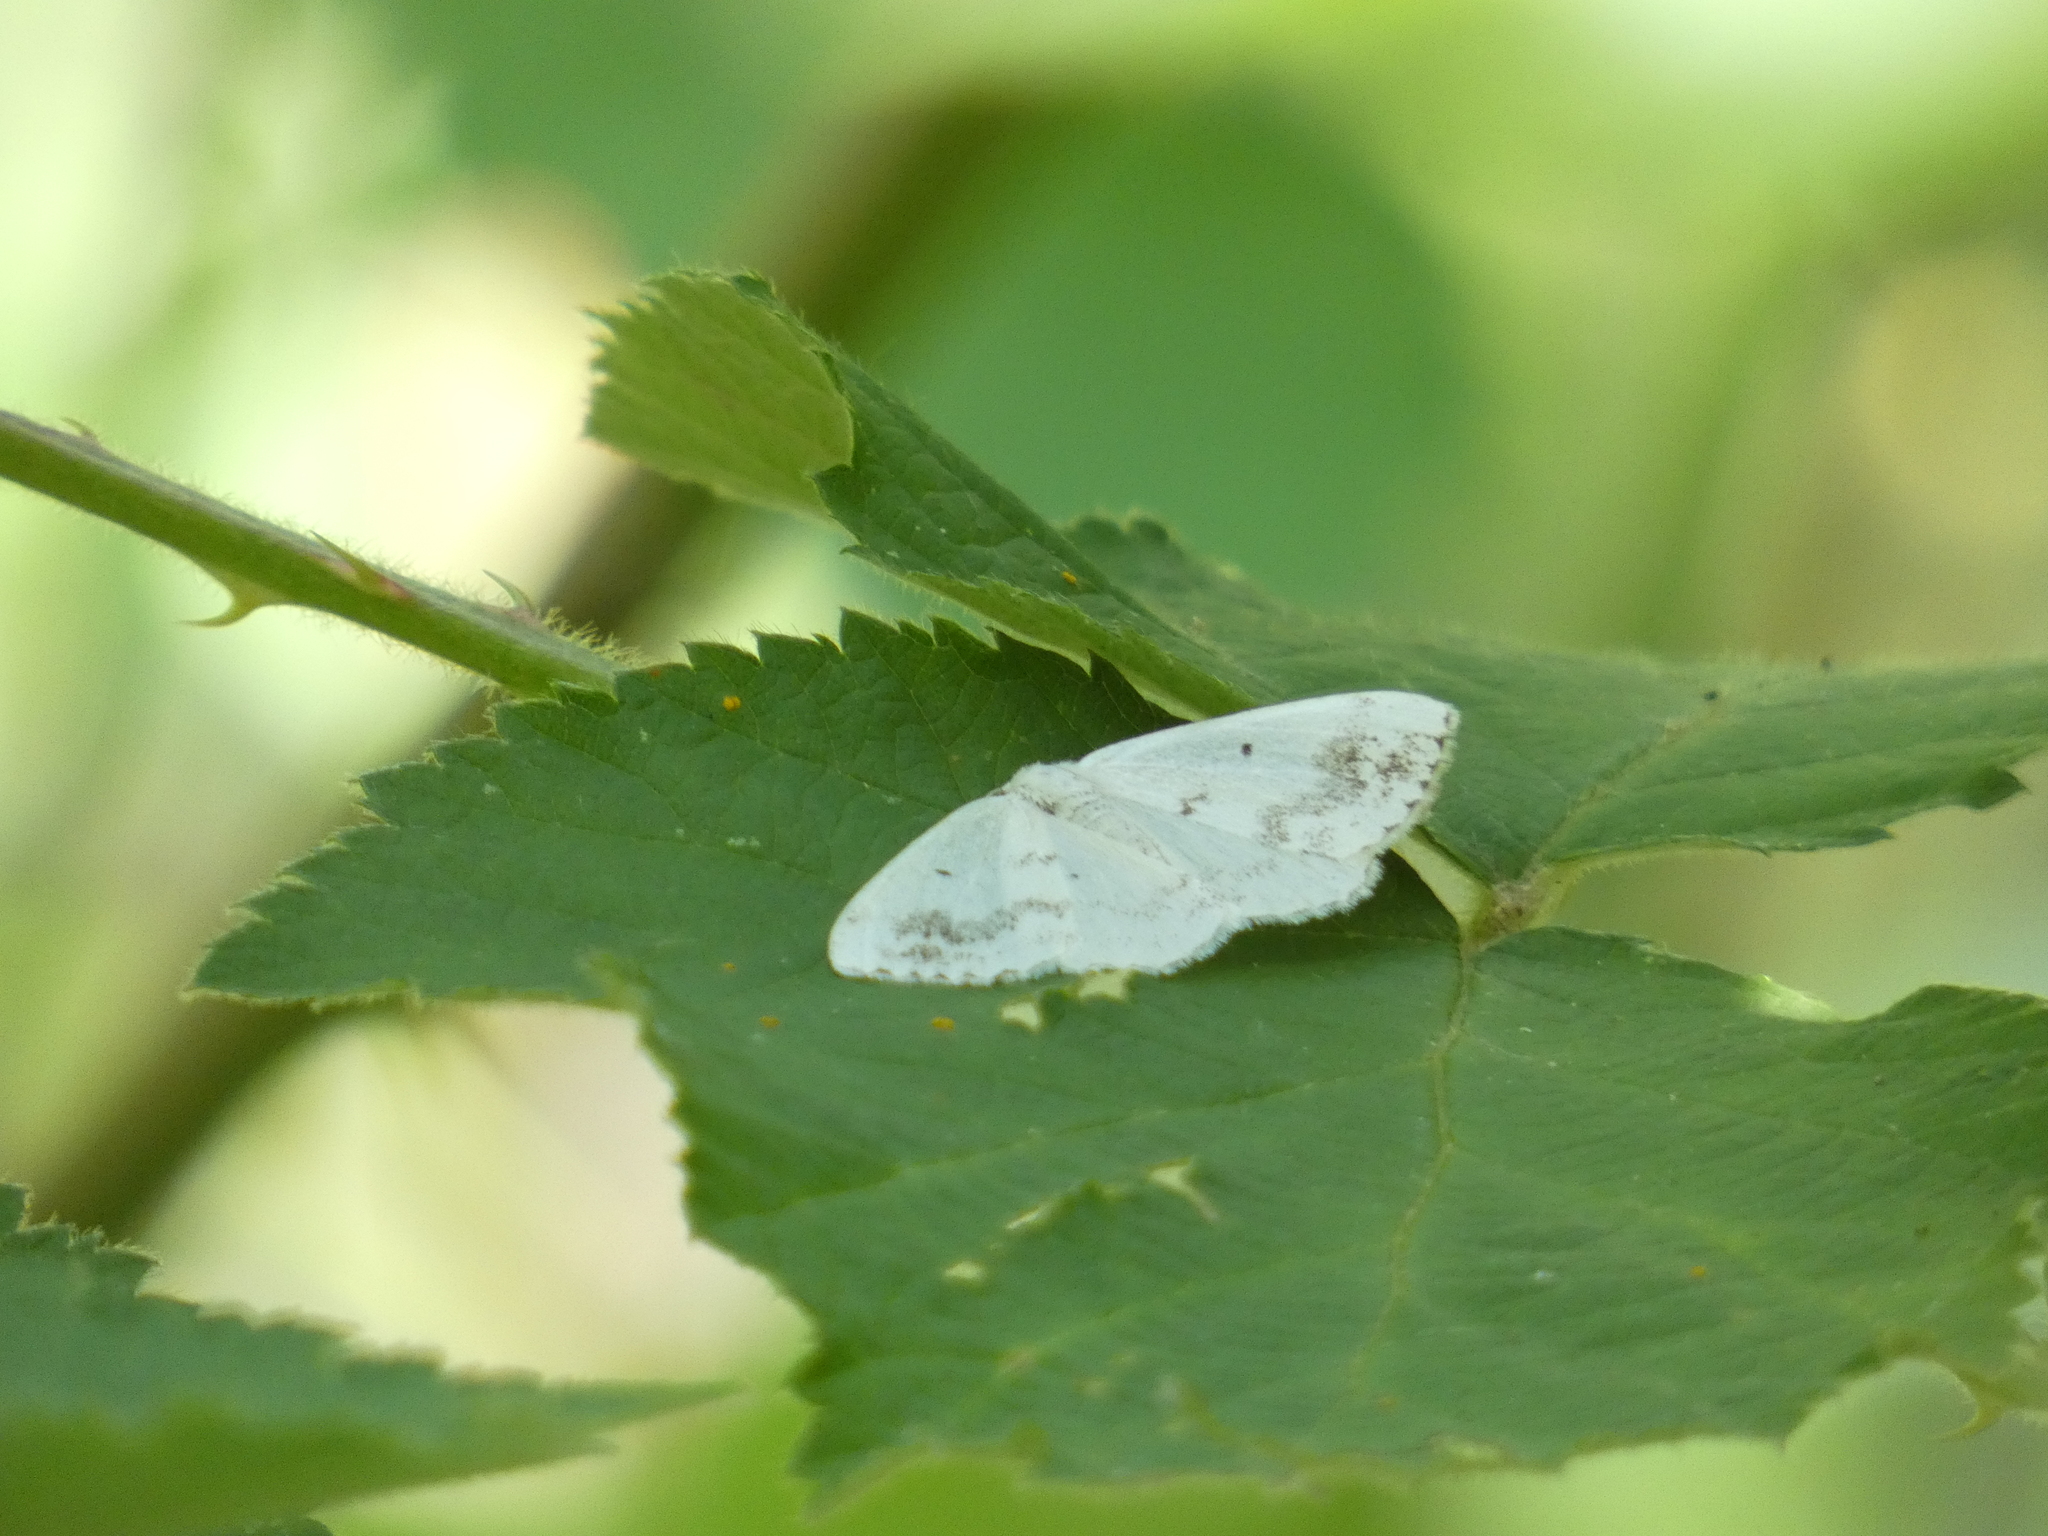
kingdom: Animalia
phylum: Arthropoda
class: Insecta
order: Lepidoptera
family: Geometridae
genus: Lomographa
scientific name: Lomographa temerata
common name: Clouded silver
